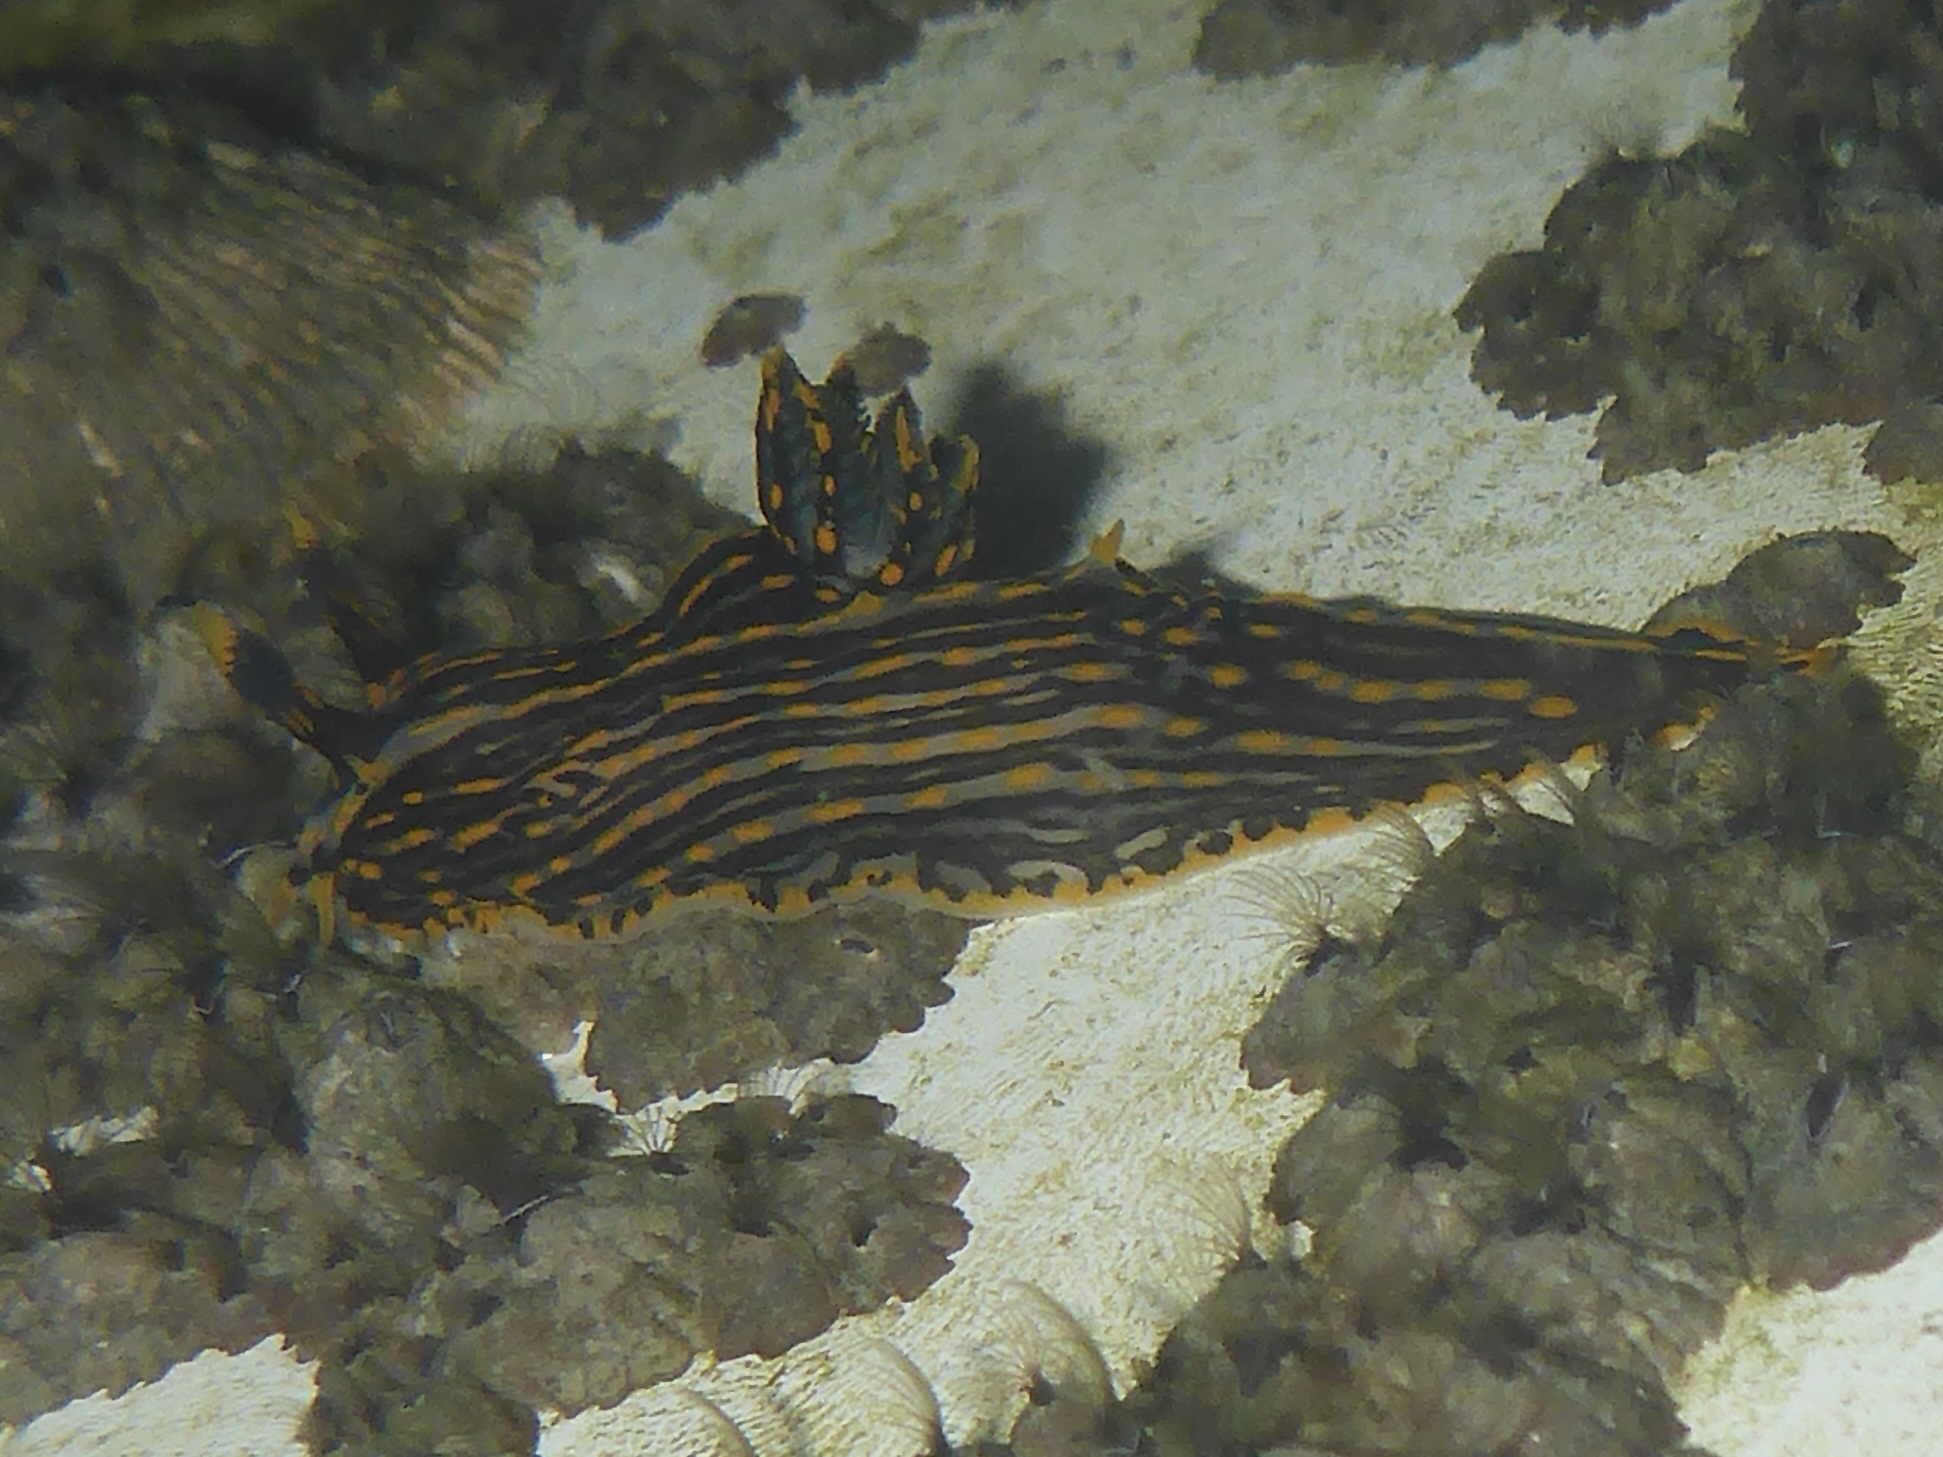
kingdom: Animalia
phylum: Mollusca
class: Gastropoda
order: Nudibranchia
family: Polyceridae
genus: Polycera
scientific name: Polycera atra
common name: Orange-spike polycera
